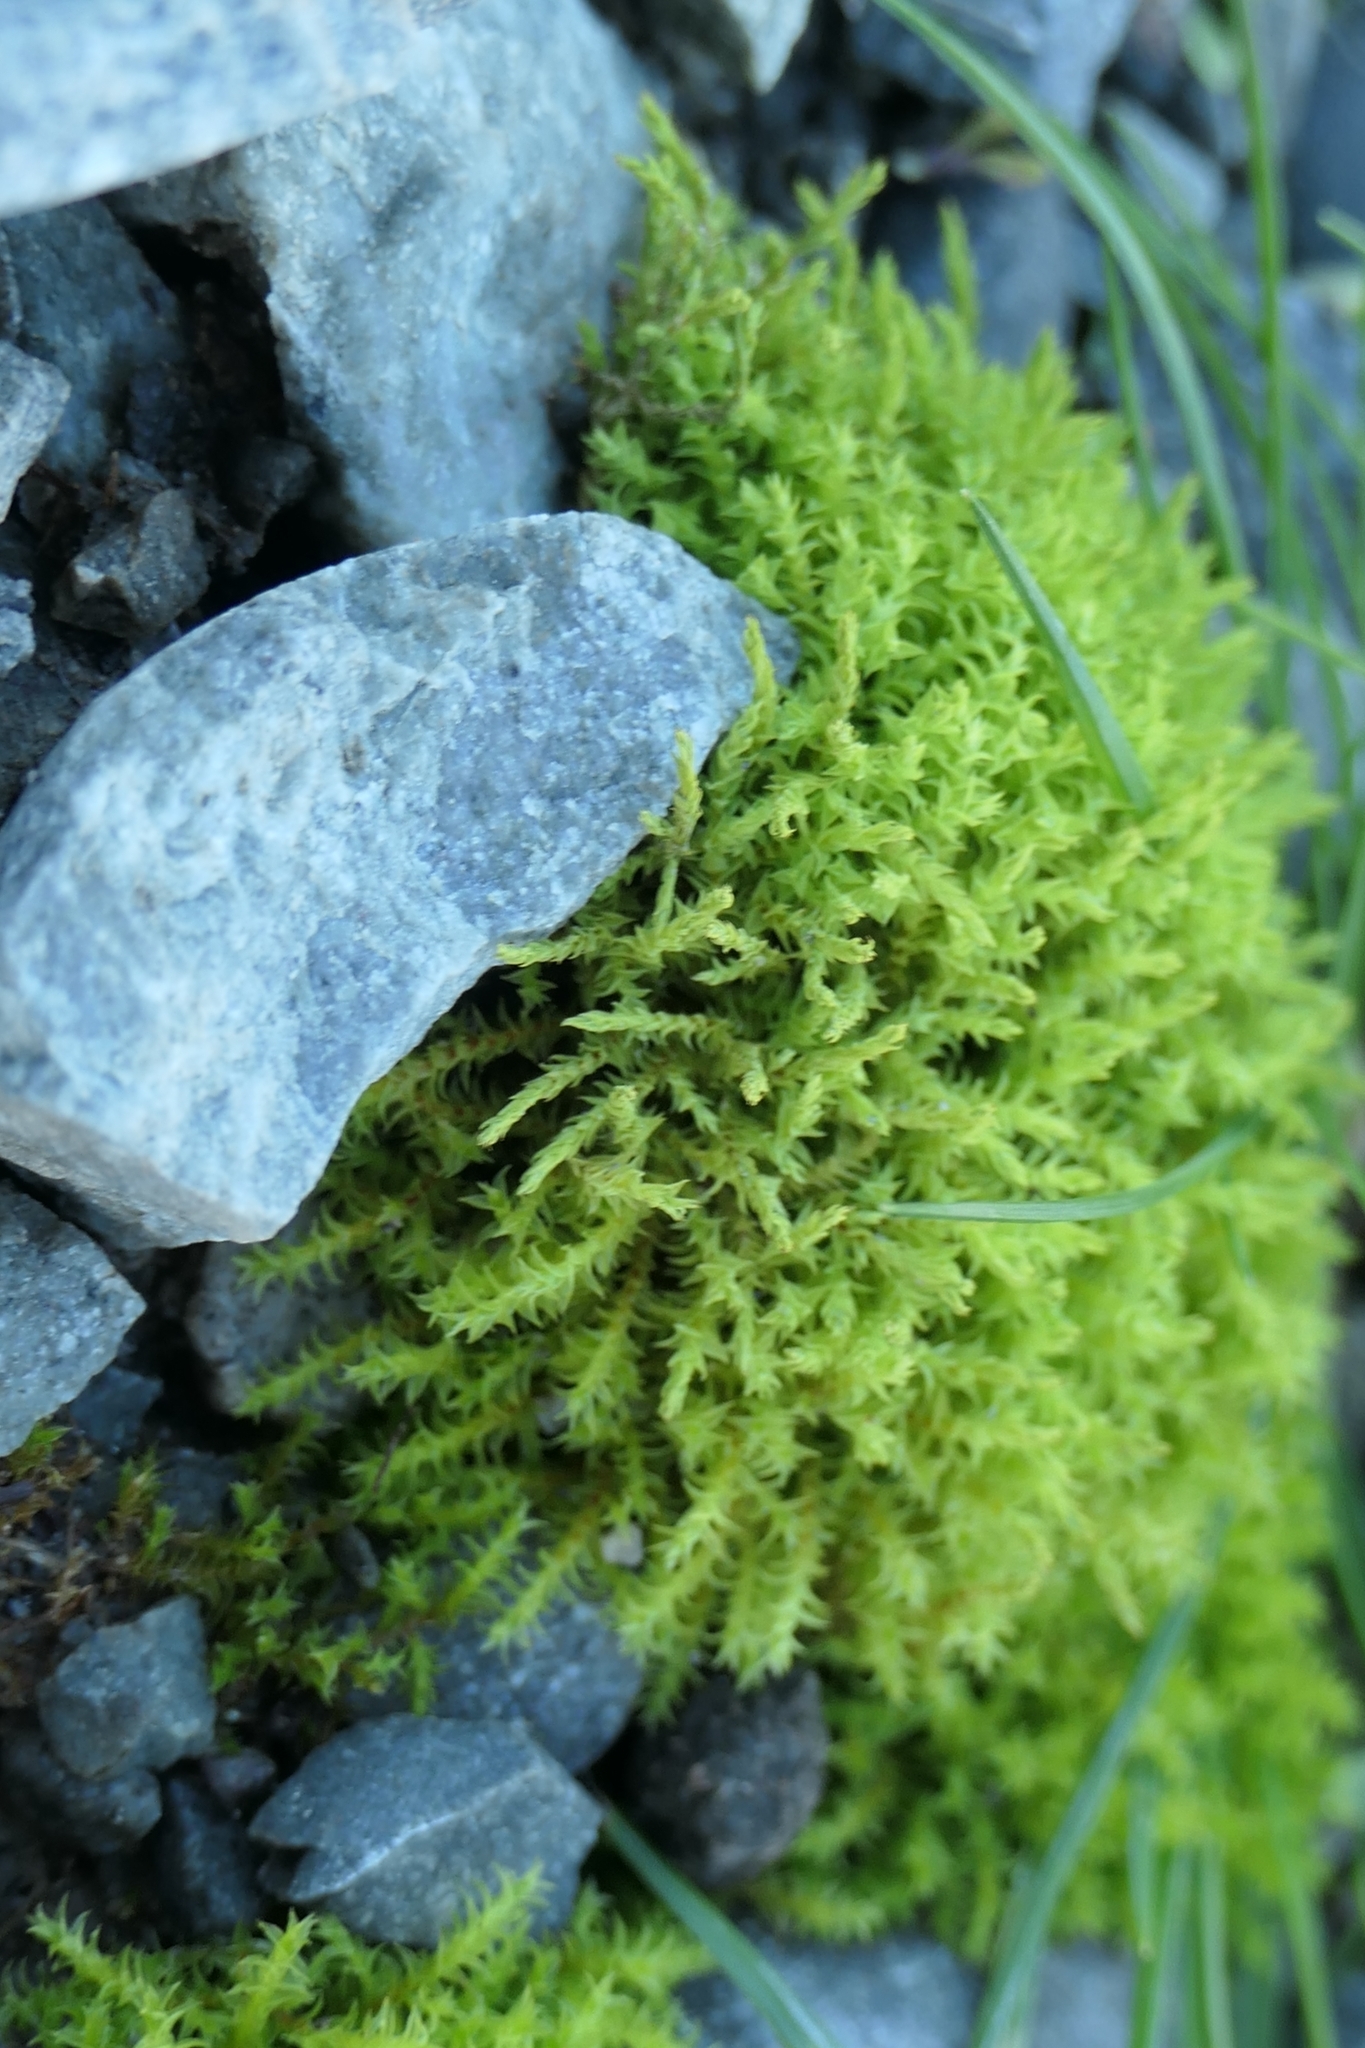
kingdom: Plantae
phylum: Bryophyta
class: Bryopsida
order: Pottiales
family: Pottiaceae
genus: Triquetrella
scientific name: Triquetrella papillata
